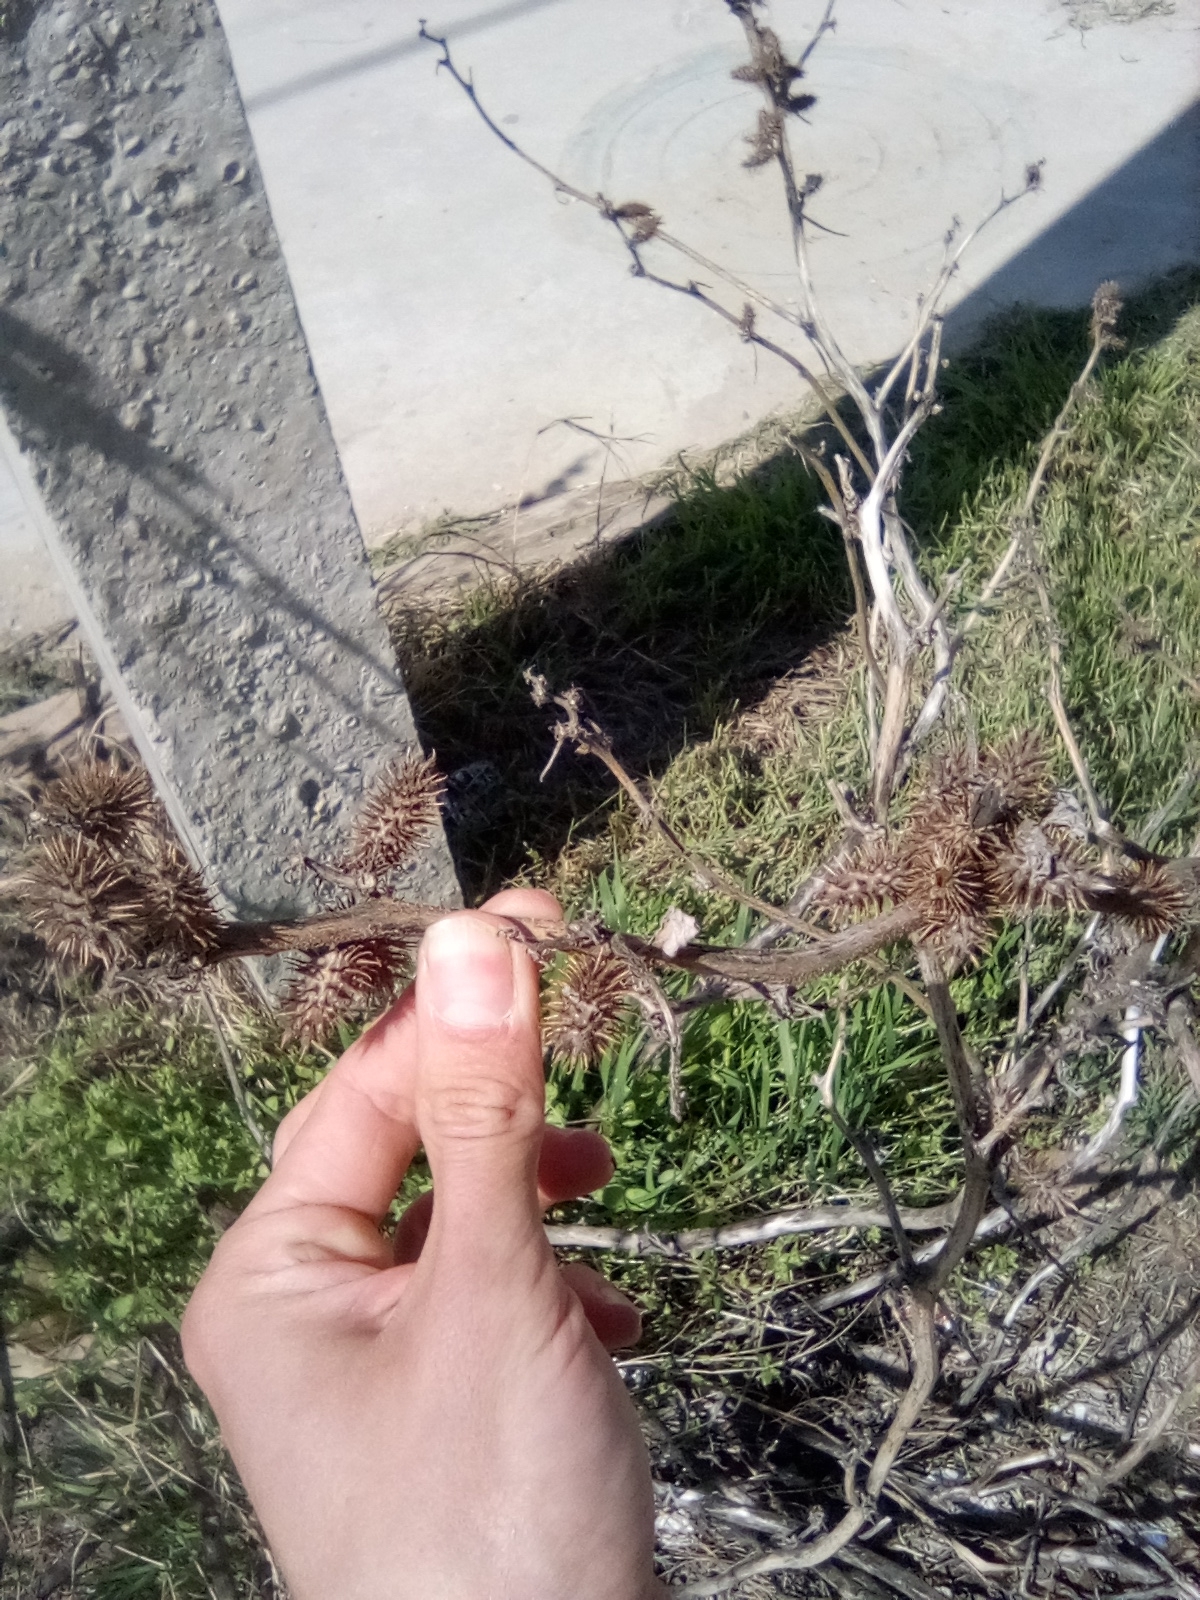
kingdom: Plantae
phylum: Tracheophyta
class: Magnoliopsida
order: Asterales
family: Asteraceae
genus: Xanthium
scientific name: Xanthium orientale
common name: Californian burr
